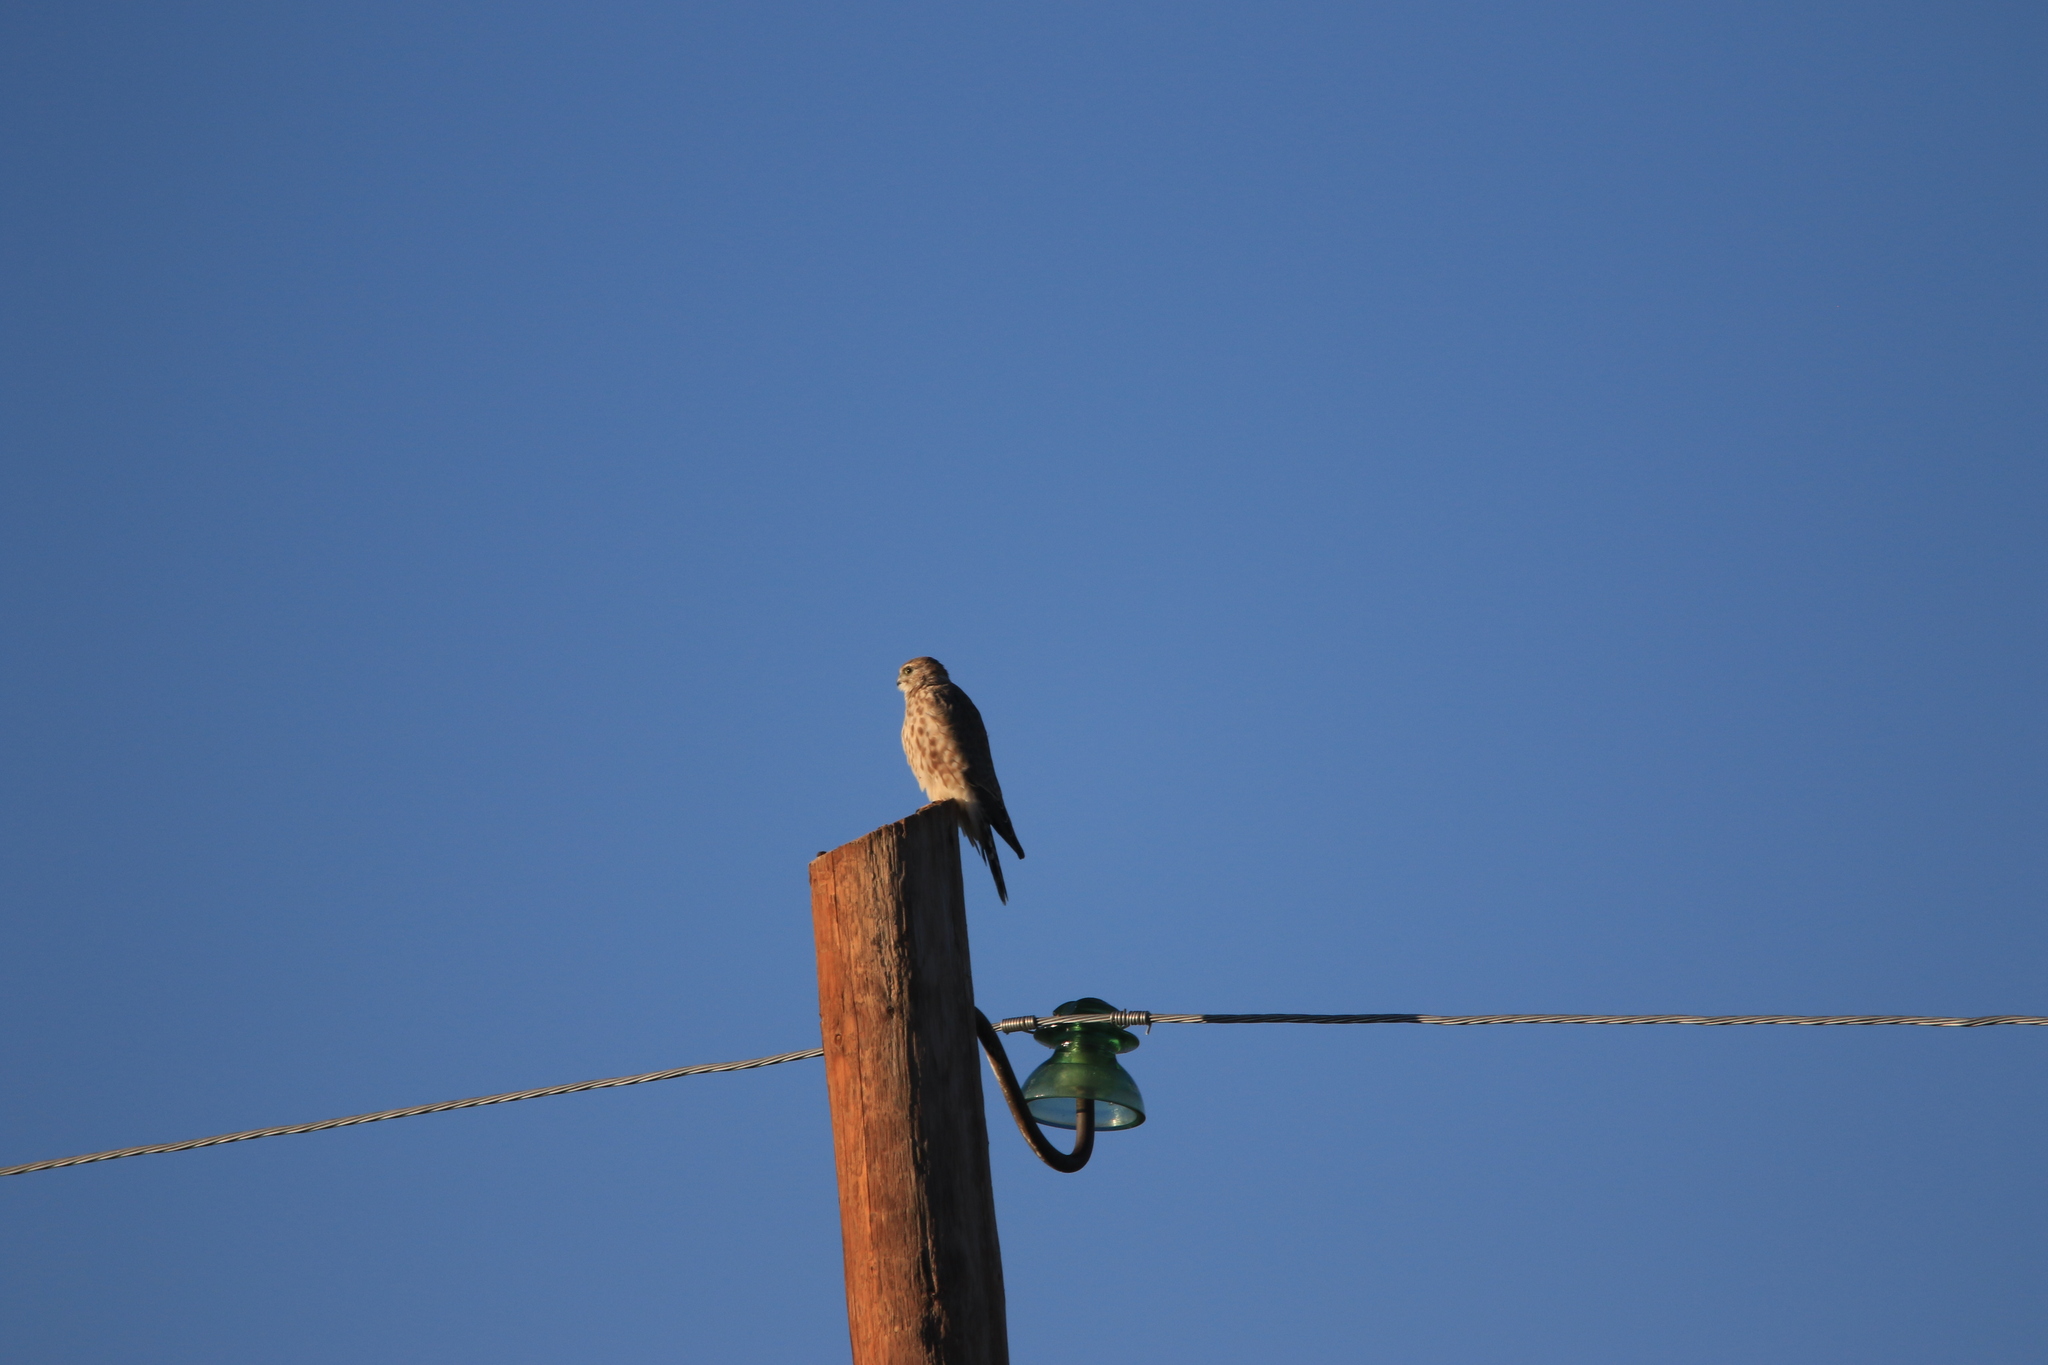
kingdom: Animalia
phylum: Chordata
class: Aves
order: Falconiformes
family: Falconidae
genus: Falco
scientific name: Falco columbarius
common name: Merlin
